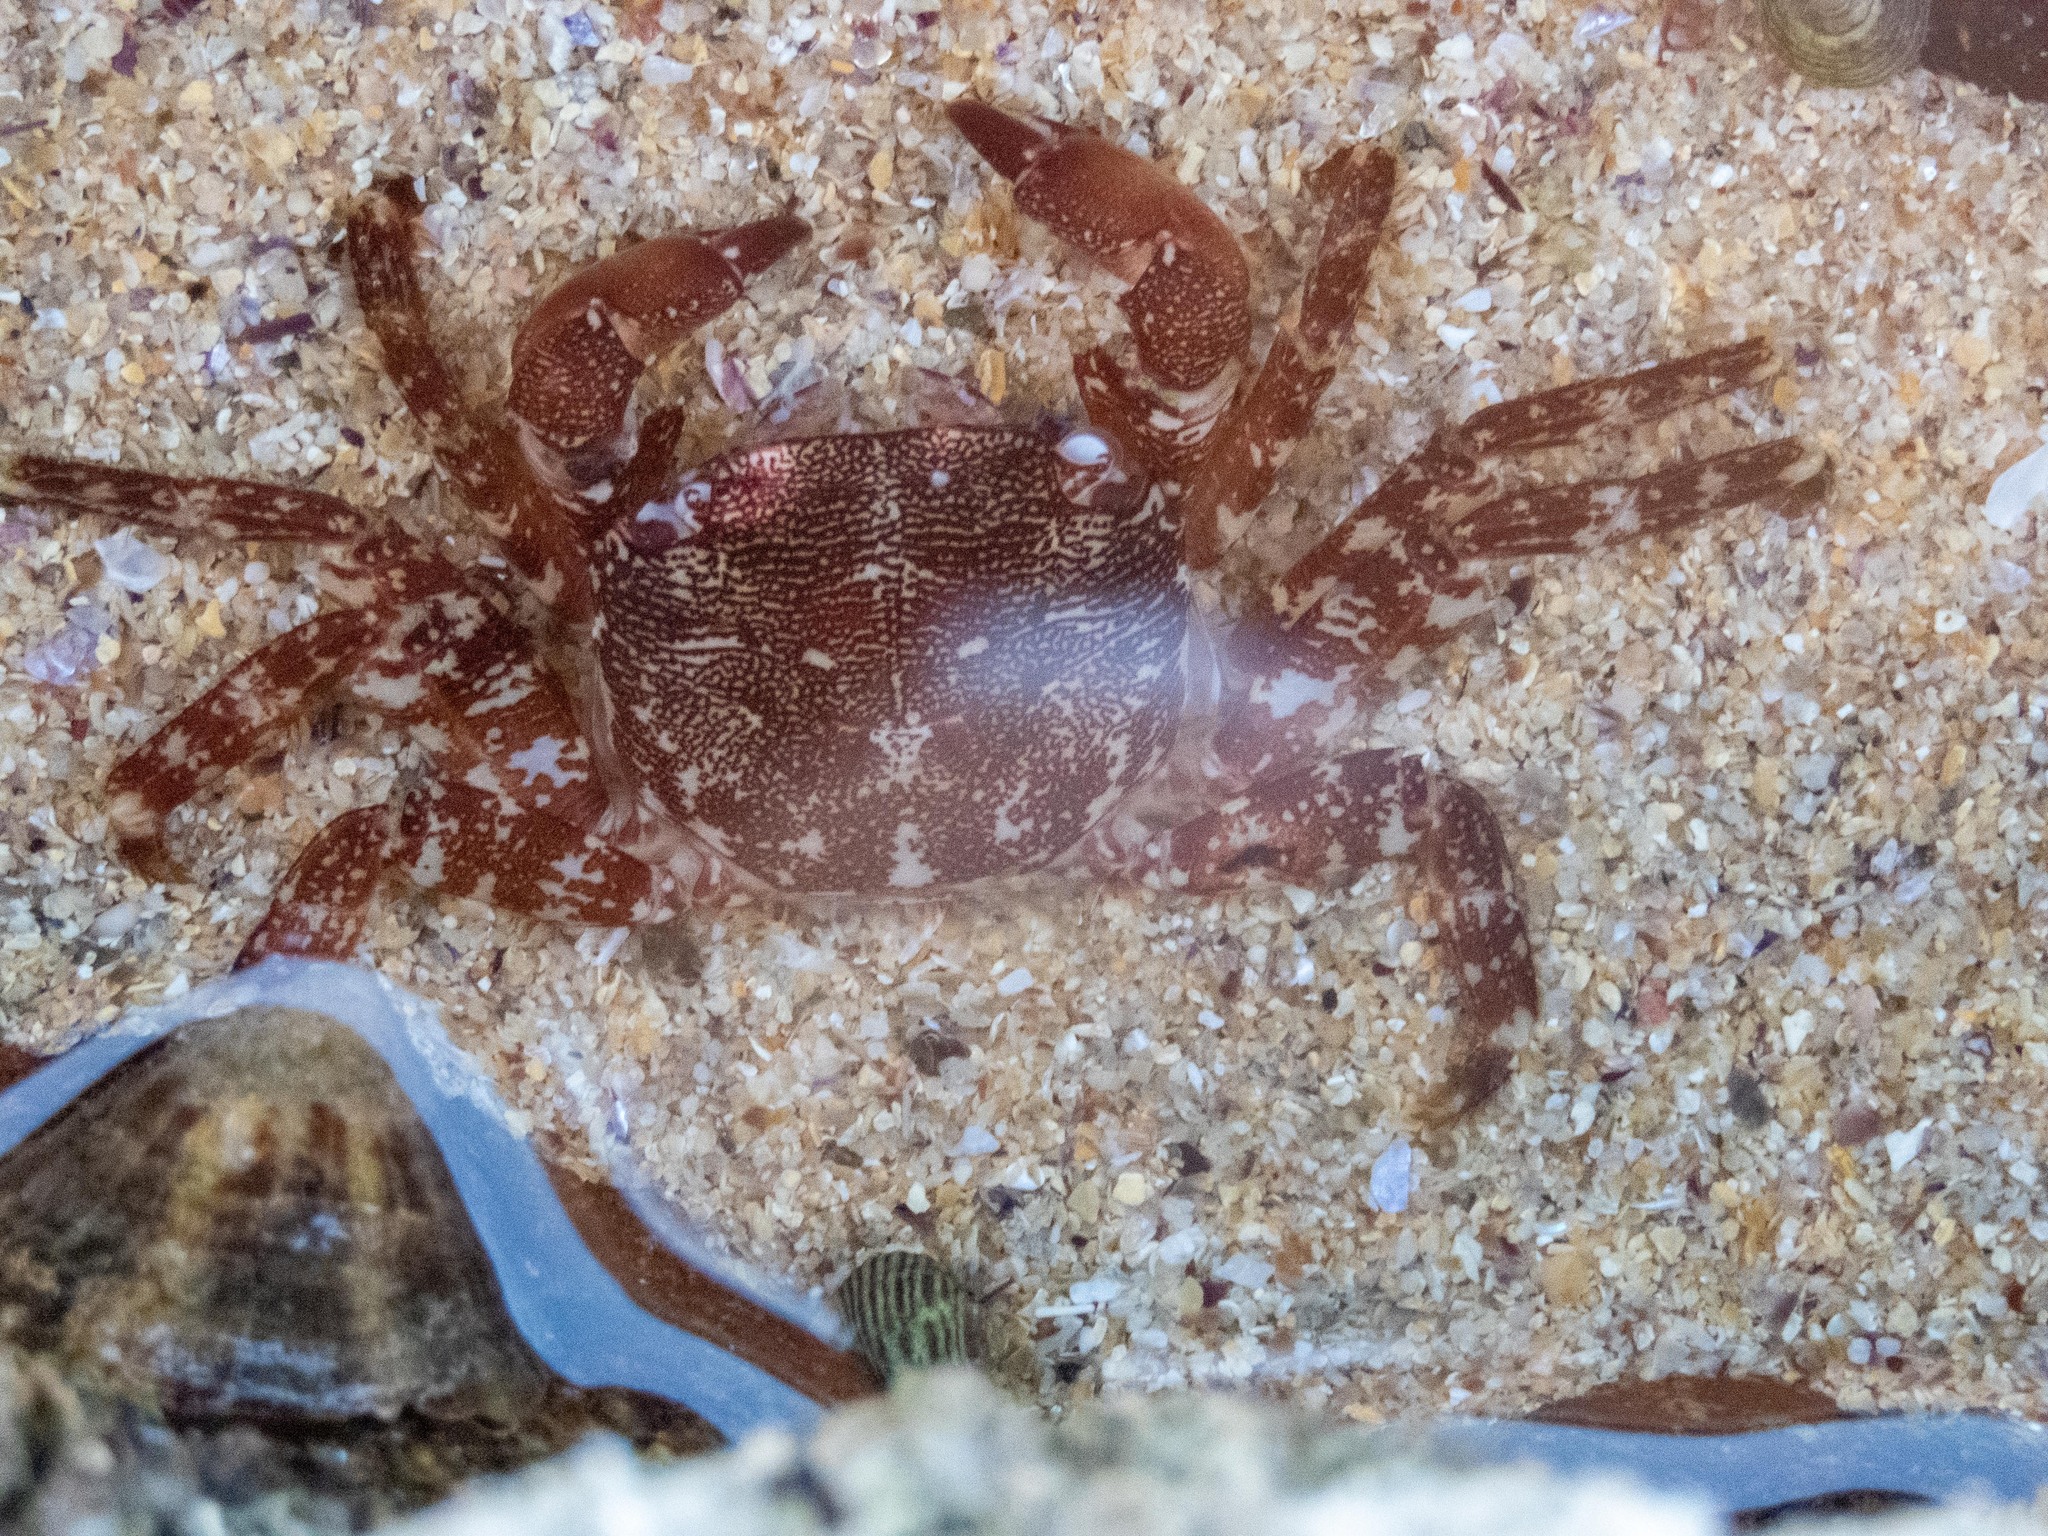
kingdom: Animalia
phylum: Arthropoda
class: Malacostraca
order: Decapoda
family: Grapsidae
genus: Pachygrapsus
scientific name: Pachygrapsus marmoratus
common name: Marbled rock crab
